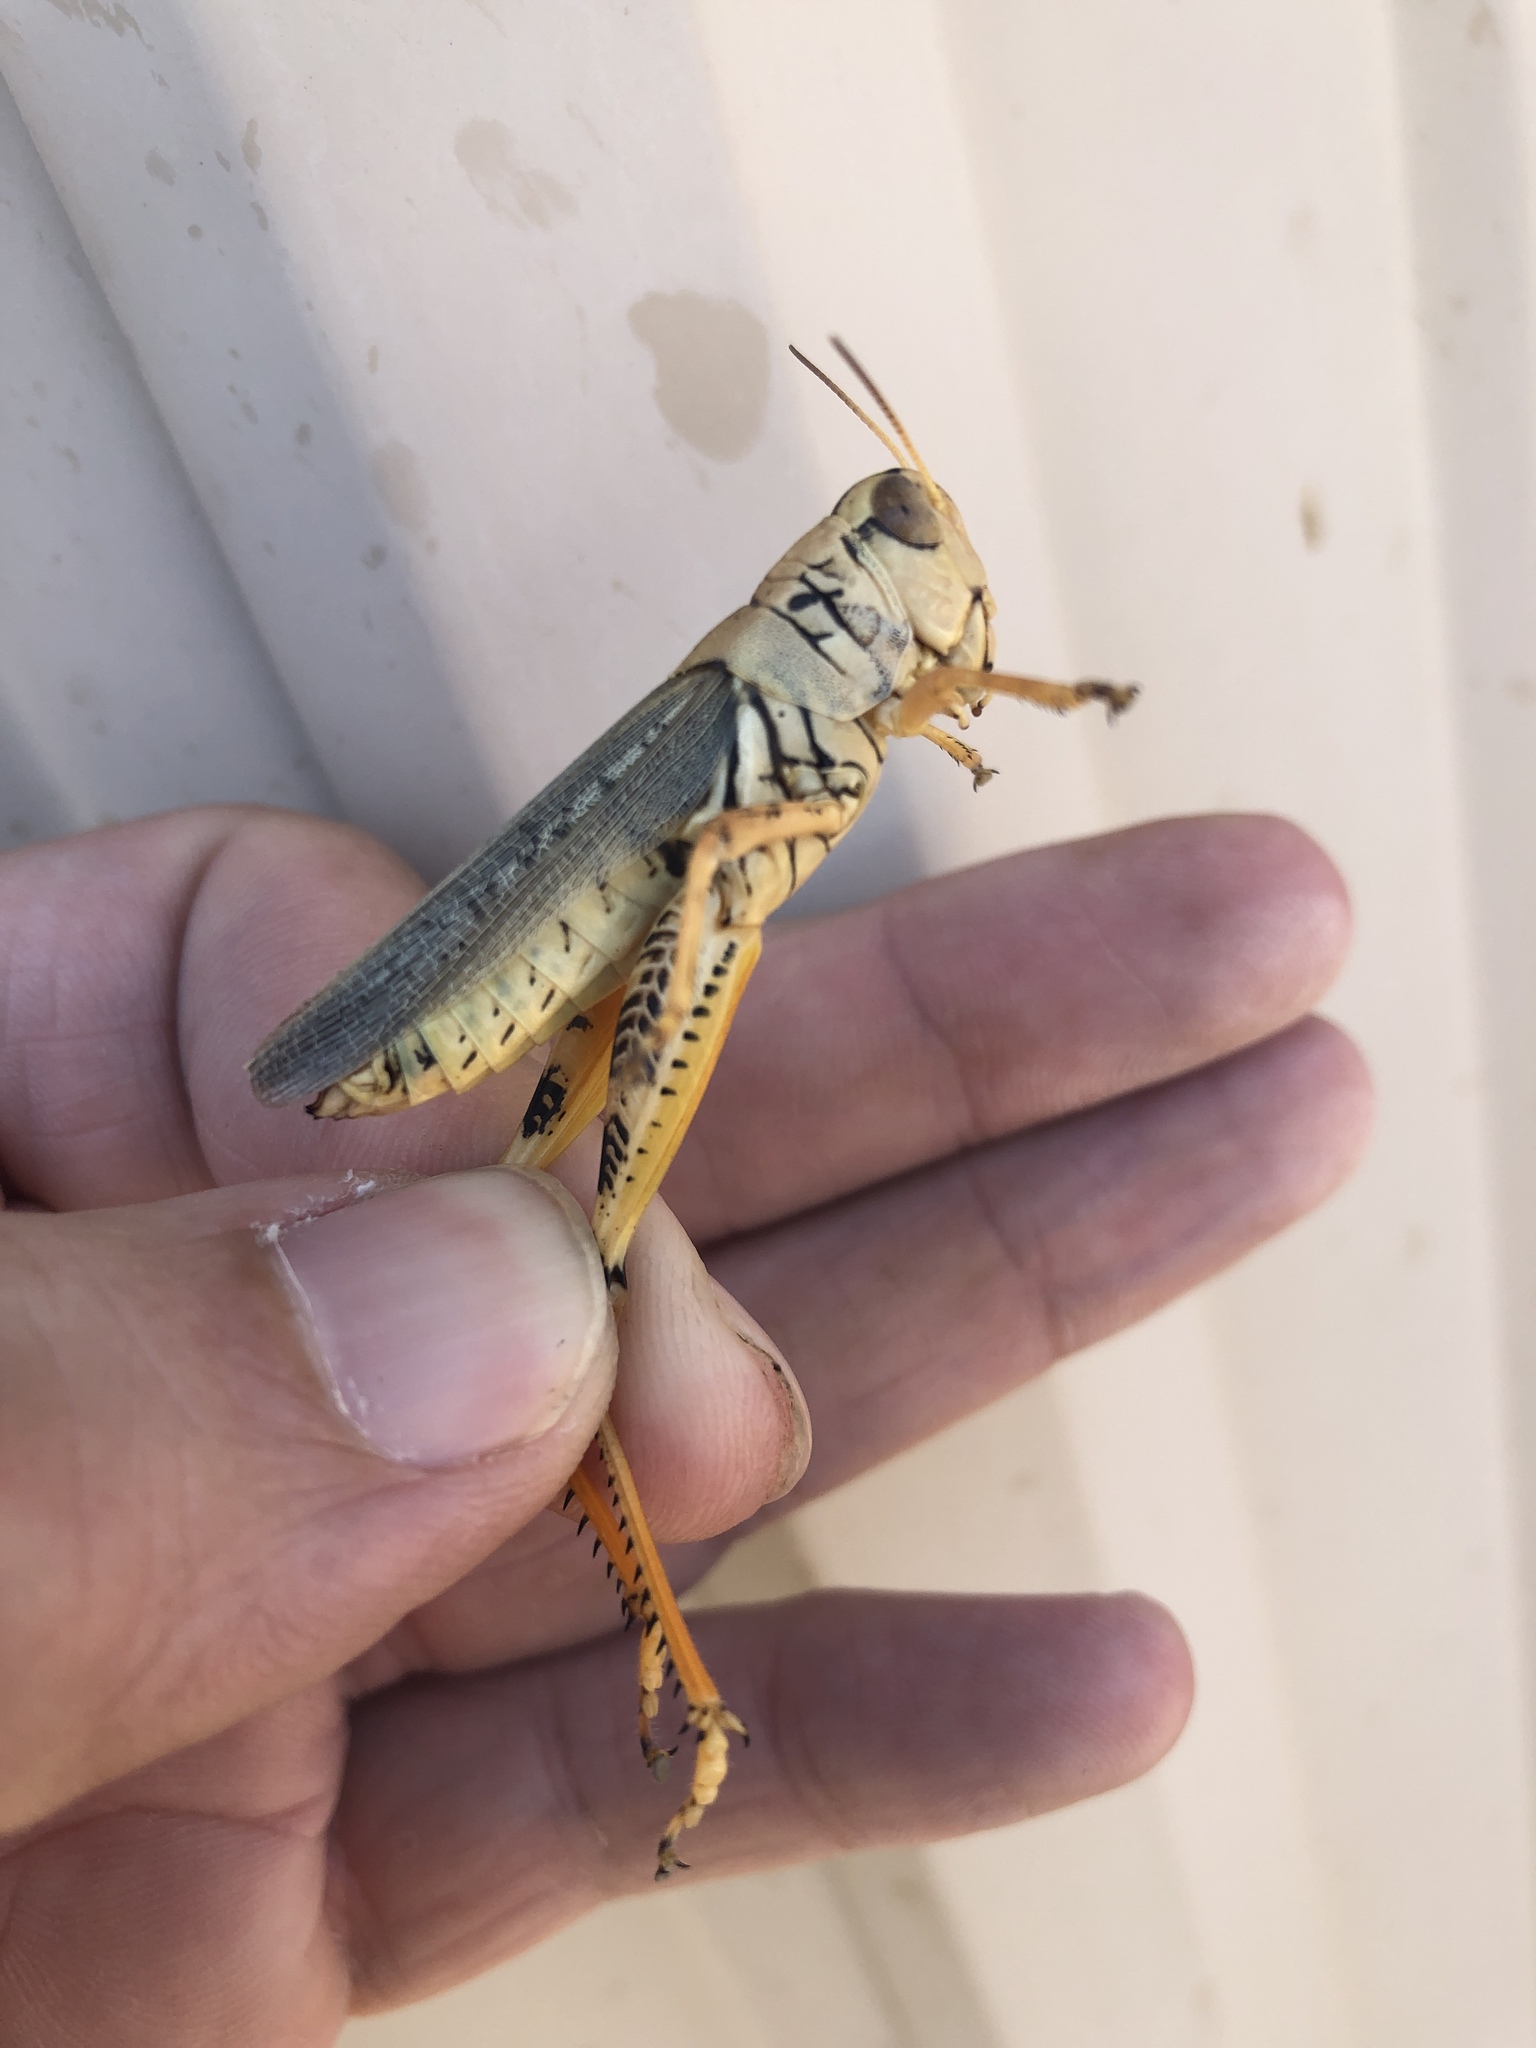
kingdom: Animalia
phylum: Arthropoda
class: Insecta
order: Orthoptera
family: Acrididae
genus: Melanoplus
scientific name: Melanoplus differentialis
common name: Differential grasshopper
